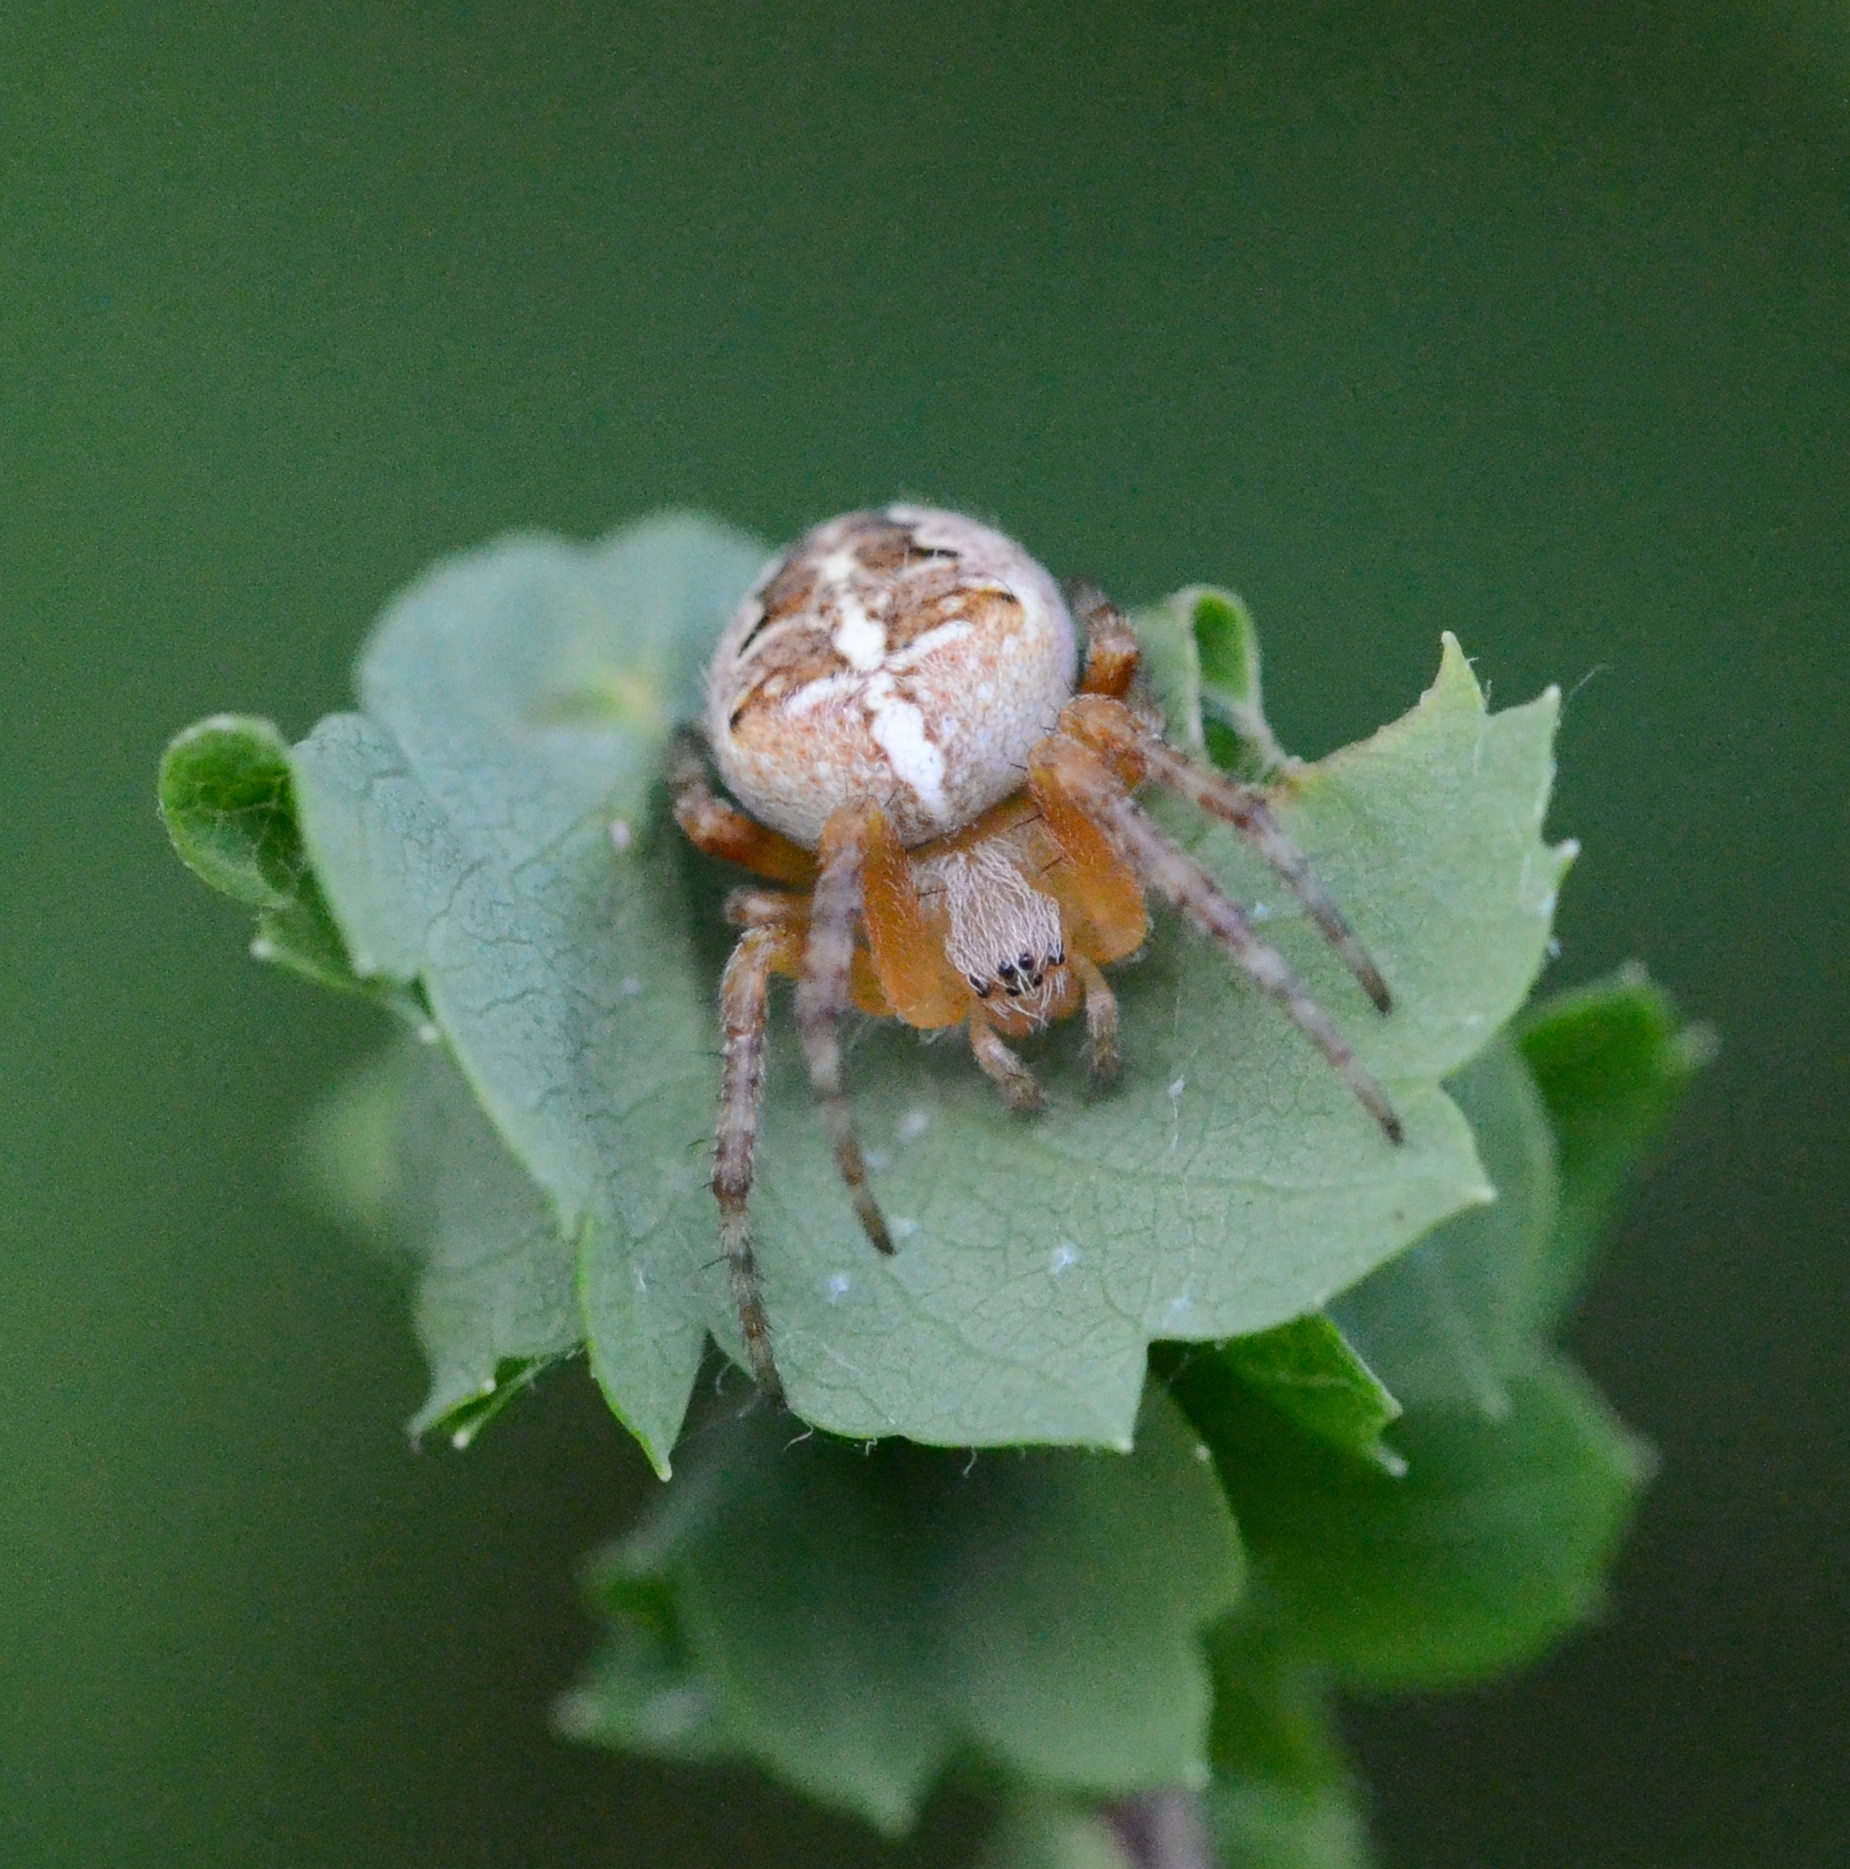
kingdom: Animalia
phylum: Arthropoda
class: Arachnida
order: Araneae
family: Araneidae
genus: Araneus
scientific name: Araneus diadematus
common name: Cross orbweaver
